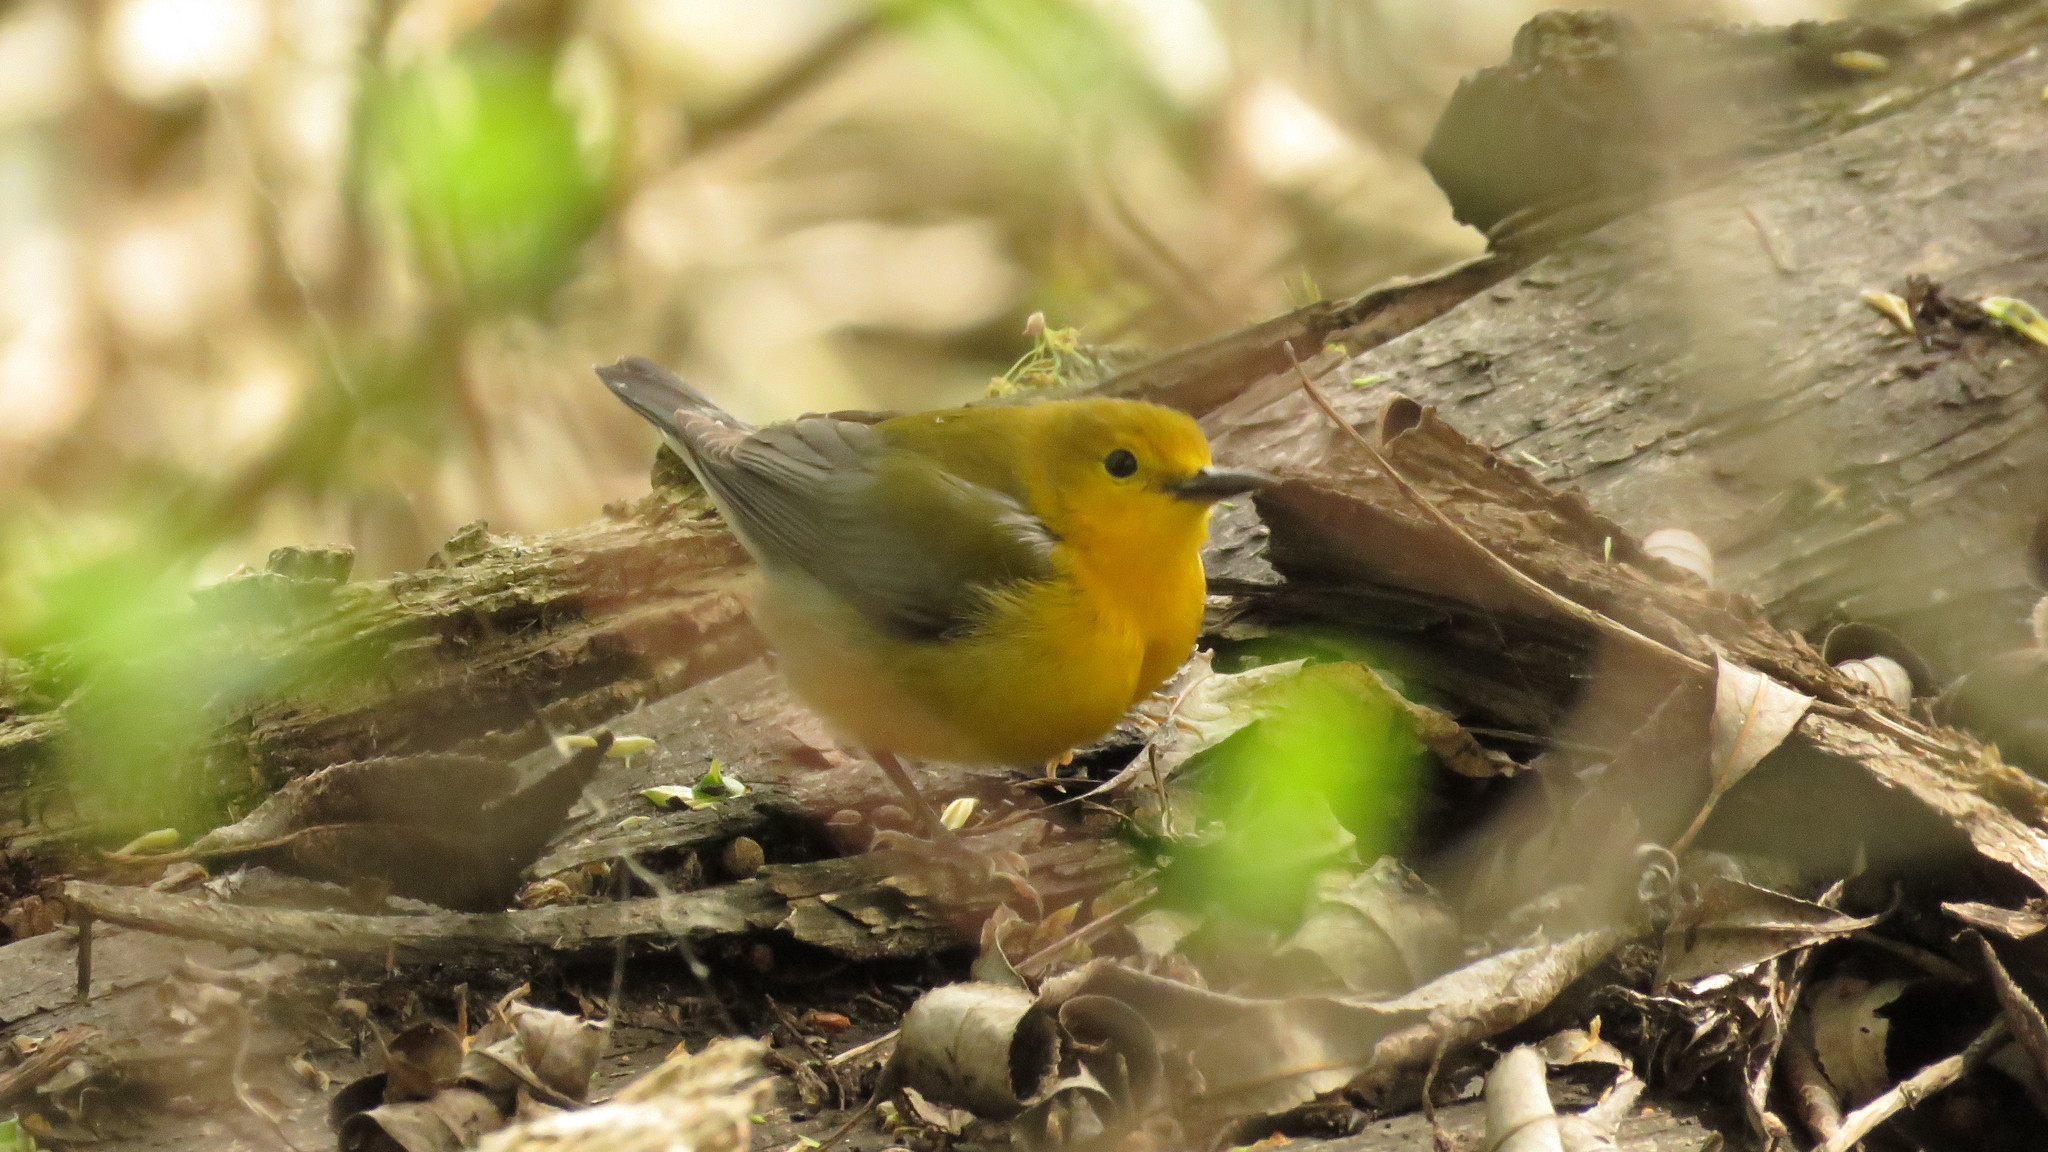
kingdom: Animalia
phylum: Chordata
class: Aves
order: Passeriformes
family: Parulidae
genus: Protonotaria
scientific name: Protonotaria citrea
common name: Prothonotary warbler
